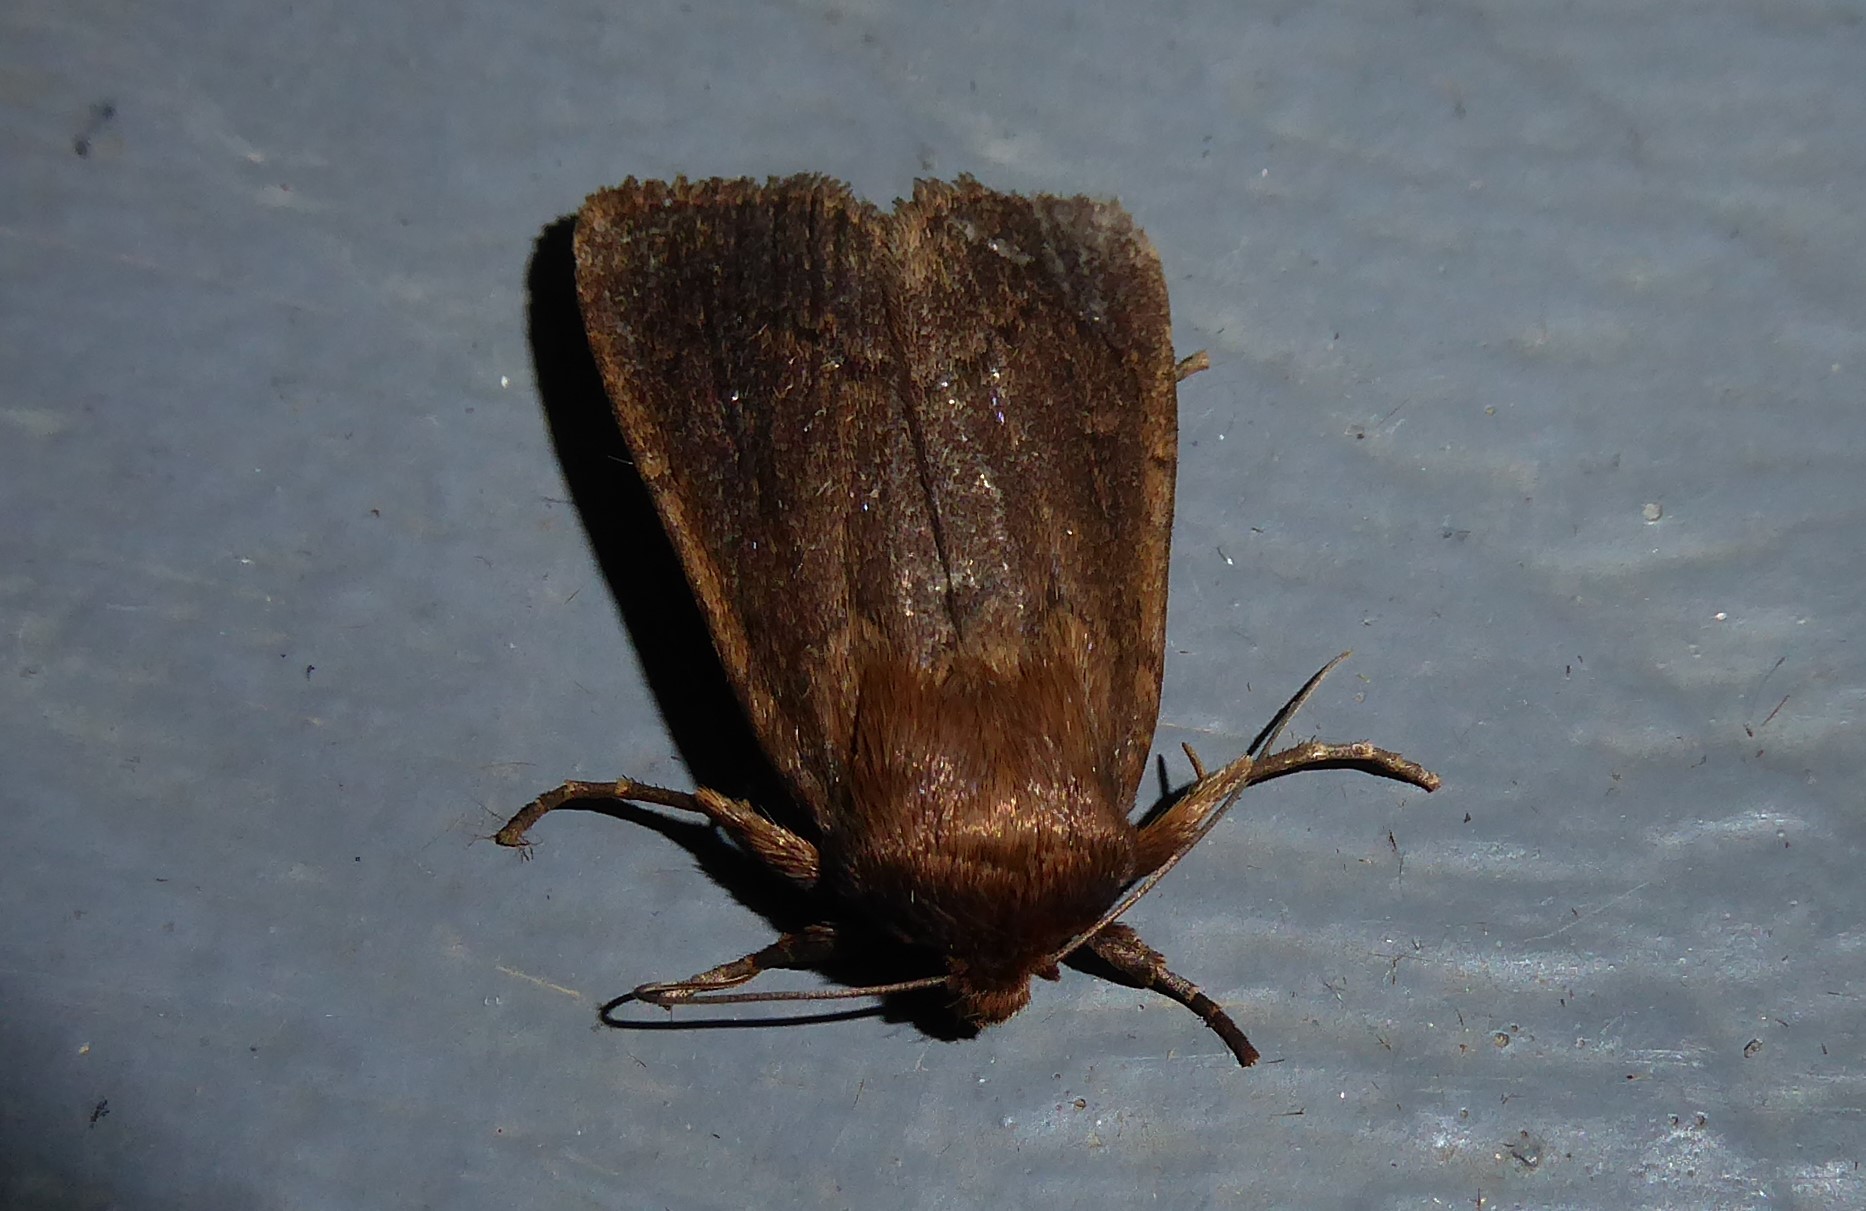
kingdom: Animalia
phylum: Arthropoda
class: Insecta
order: Lepidoptera
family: Noctuidae
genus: Bityla
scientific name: Bityla defigurata
